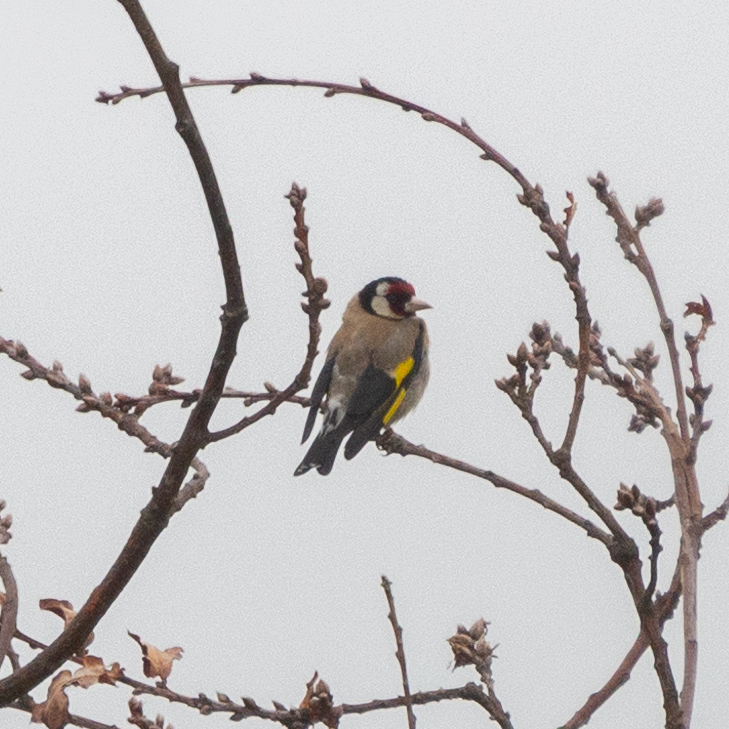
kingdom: Animalia
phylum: Chordata
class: Aves
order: Passeriformes
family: Fringillidae
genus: Carduelis
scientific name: Carduelis carduelis
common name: European goldfinch
